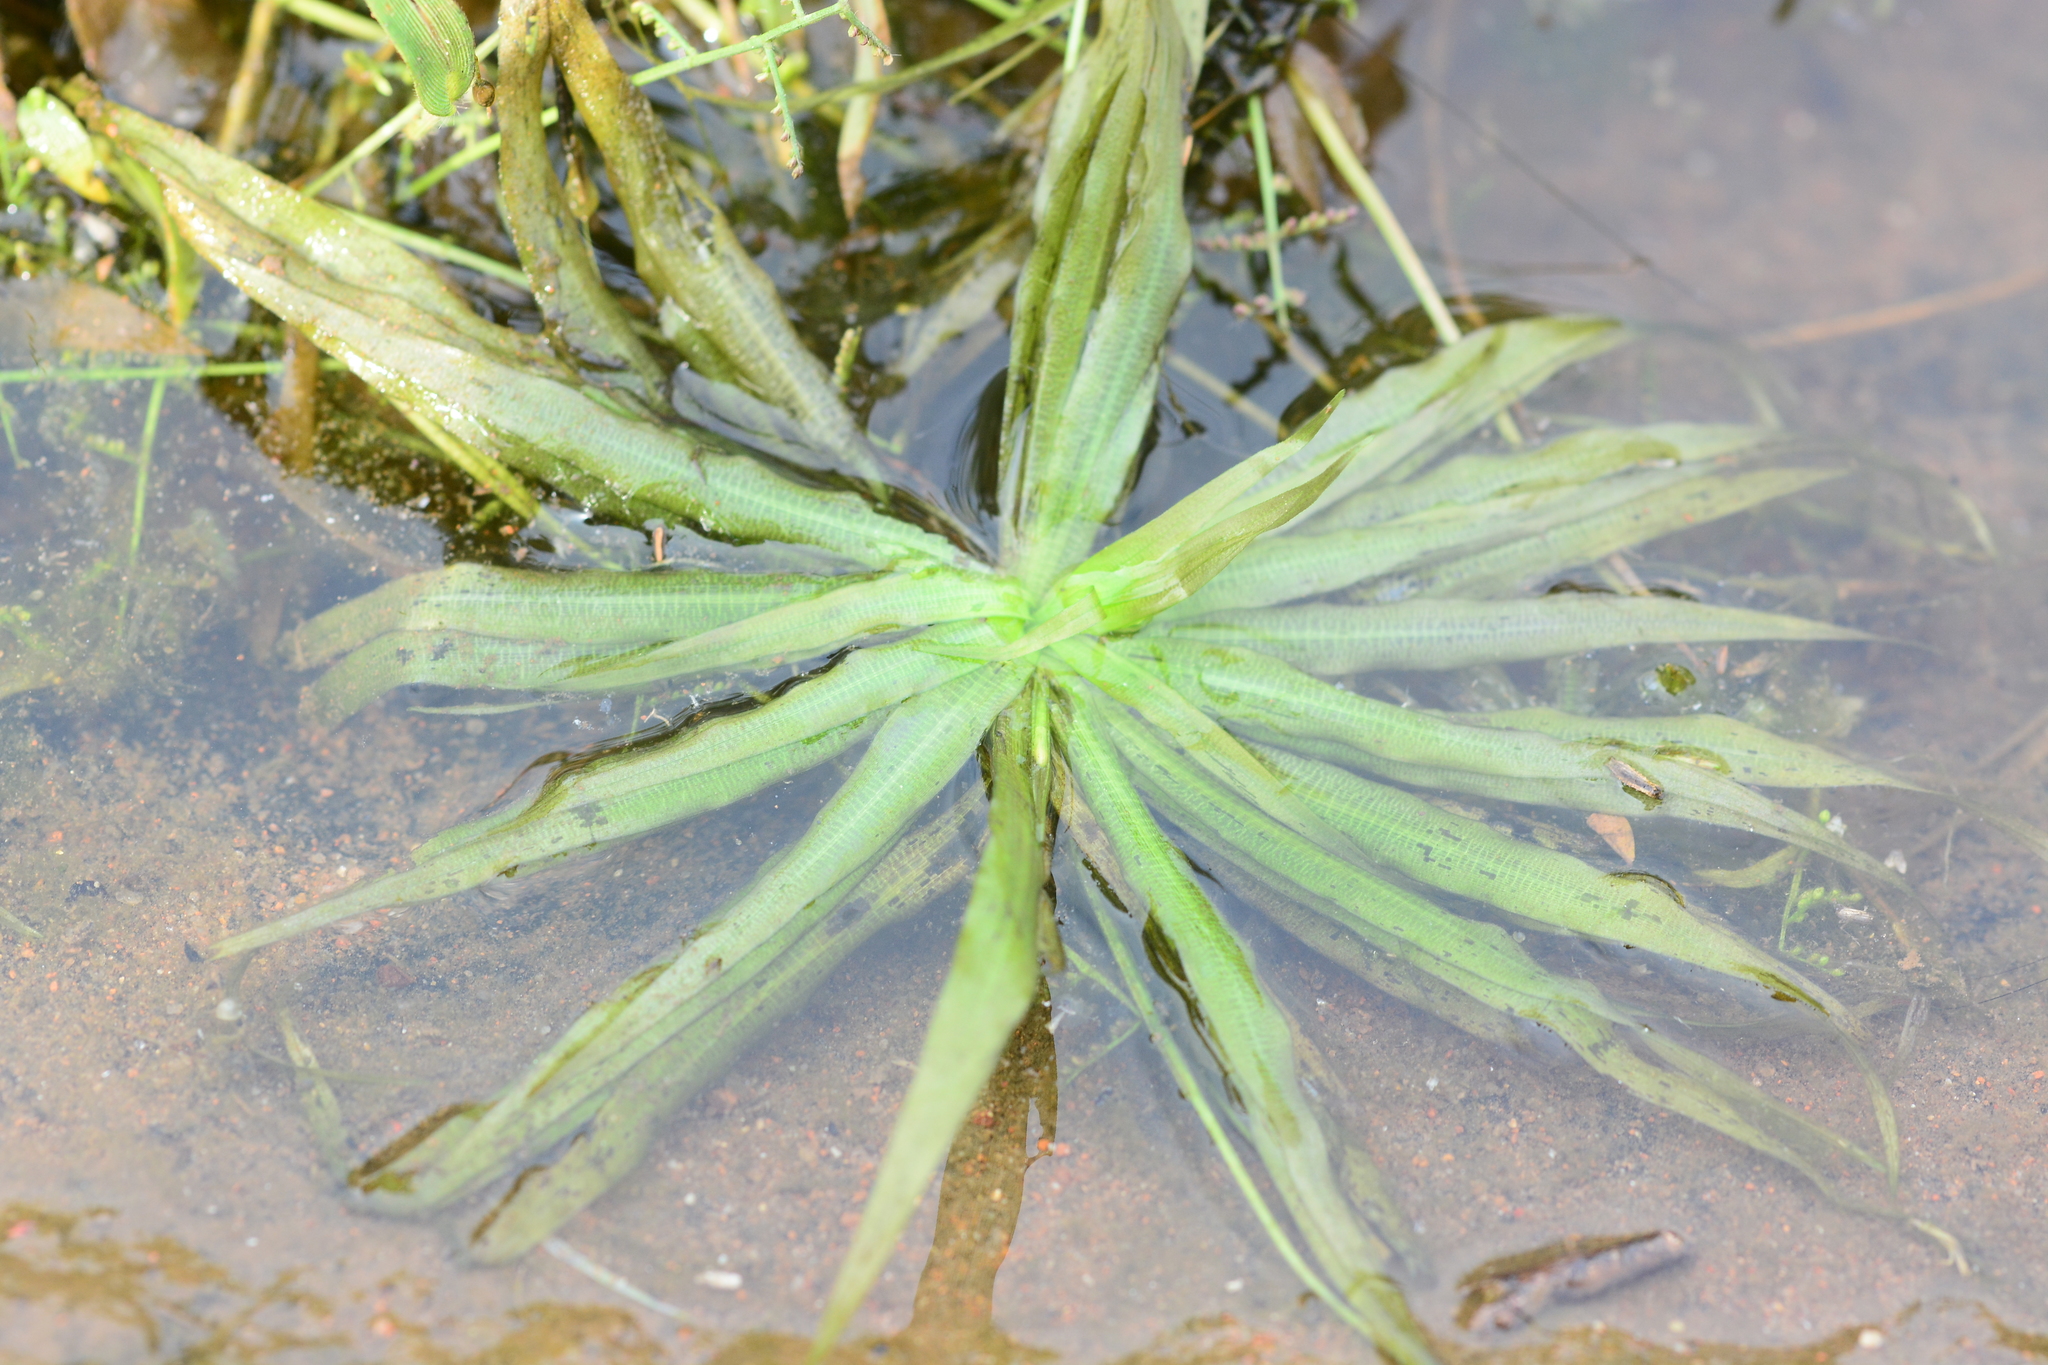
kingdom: Plantae
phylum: Tracheophyta
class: Liliopsida
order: Alismatales
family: Hydrocharitaceae
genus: Blyxa
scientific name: Blyxa octandra
